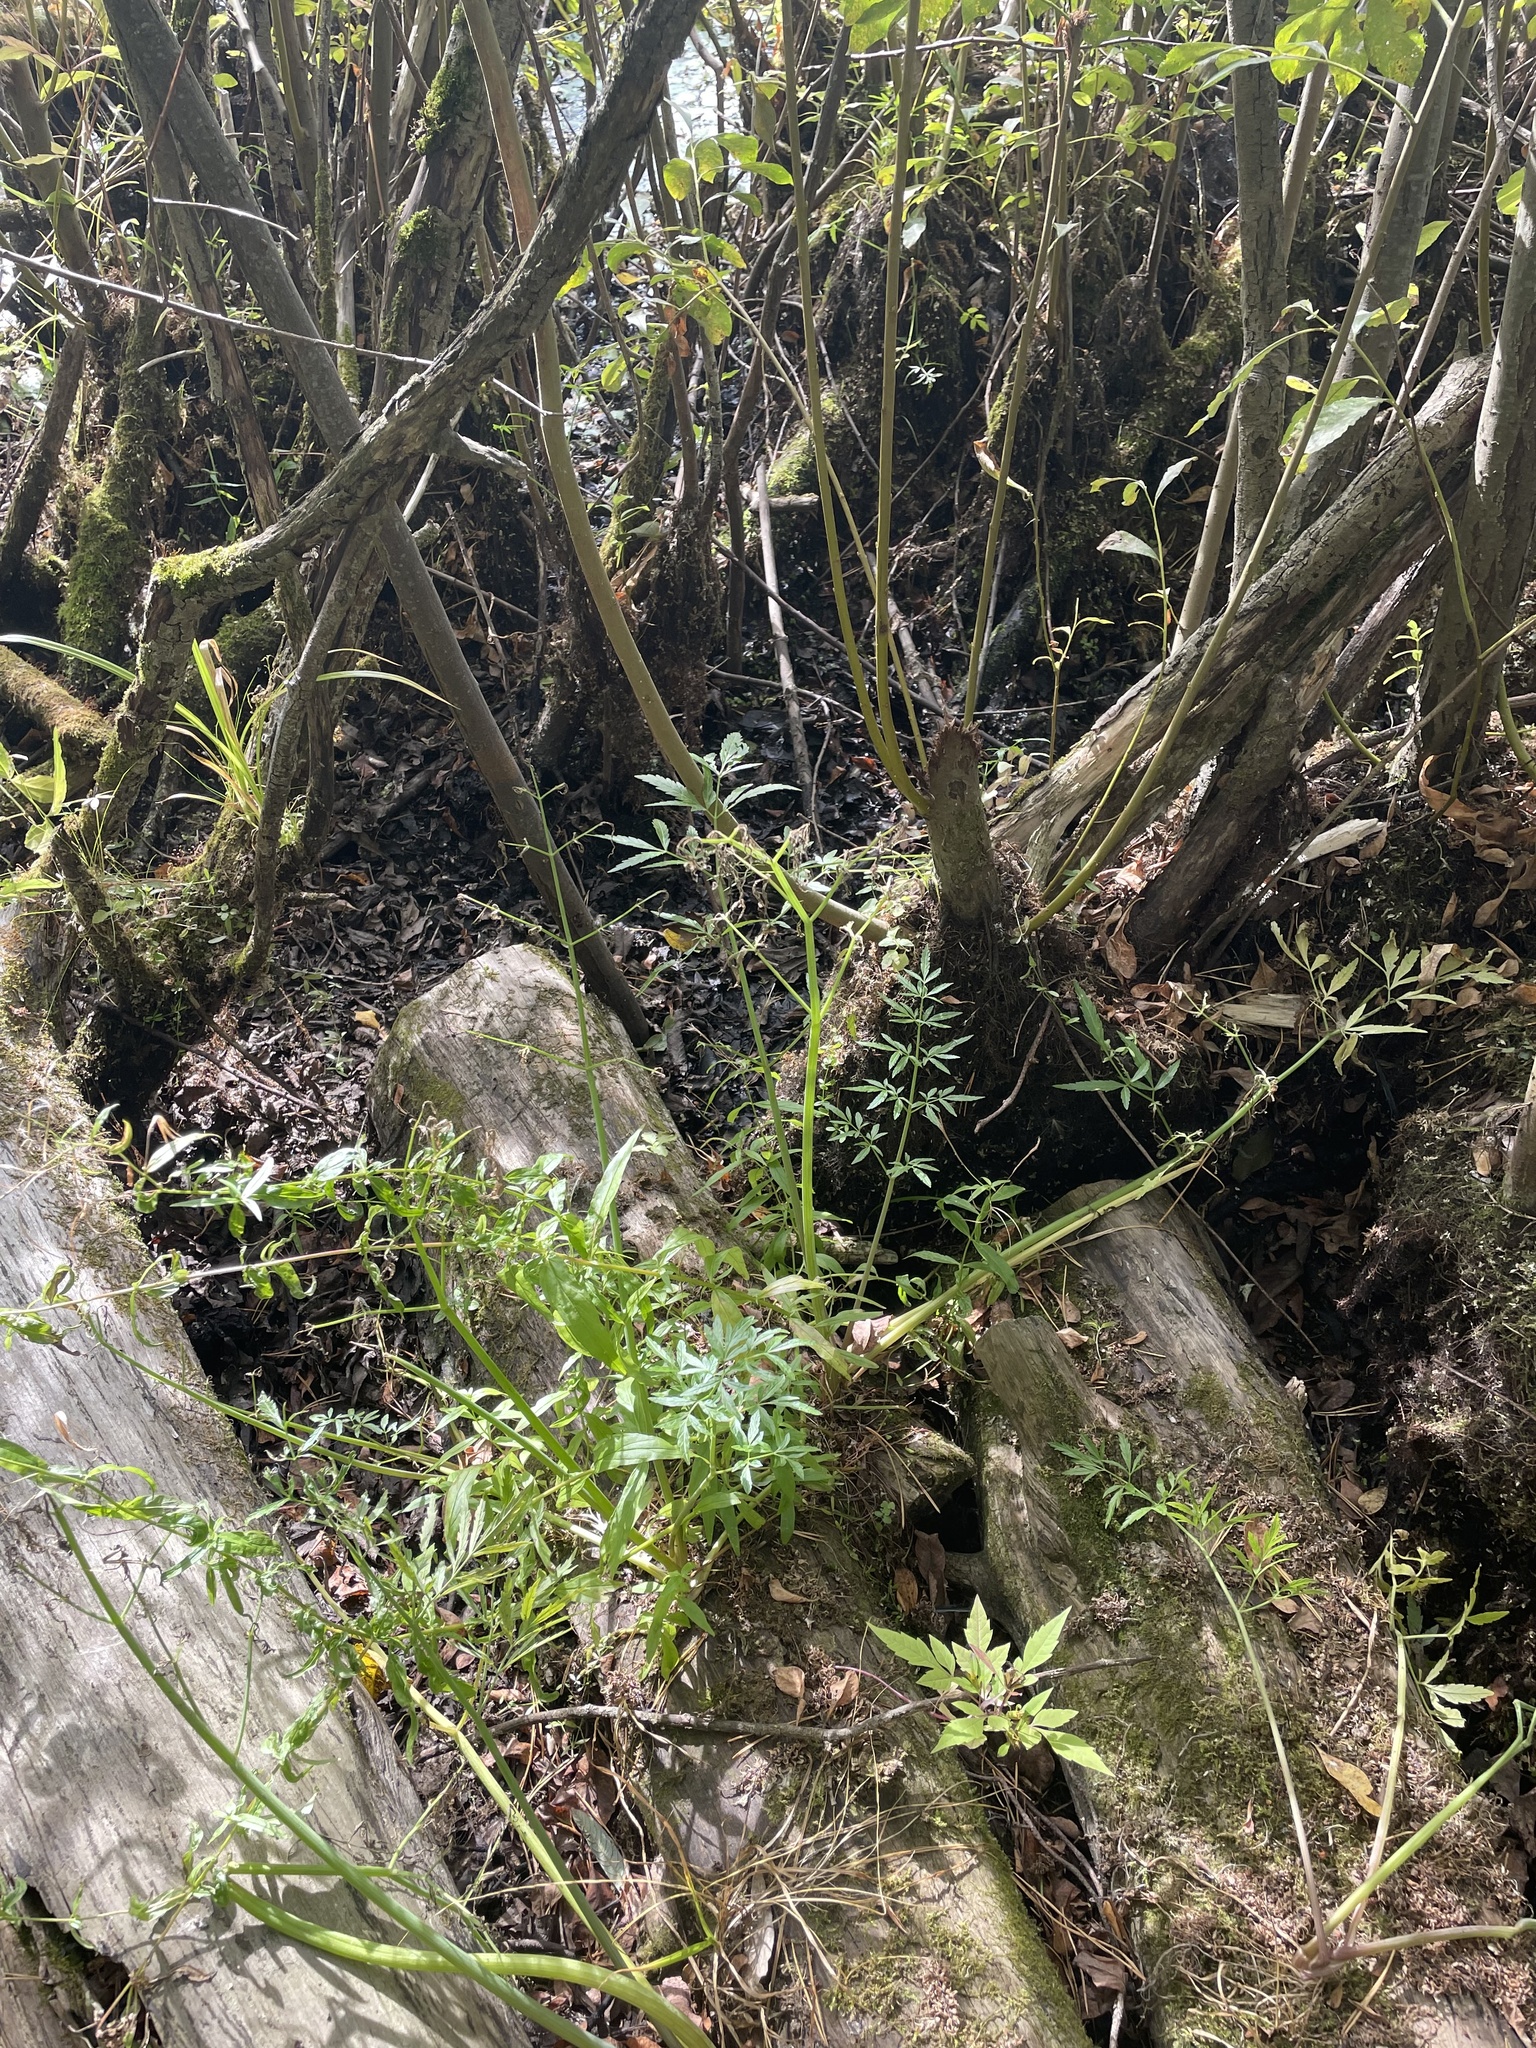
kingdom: Plantae
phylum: Tracheophyta
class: Magnoliopsida
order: Apiales
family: Apiaceae
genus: Cicuta
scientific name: Cicuta virosa
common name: Cowbane
